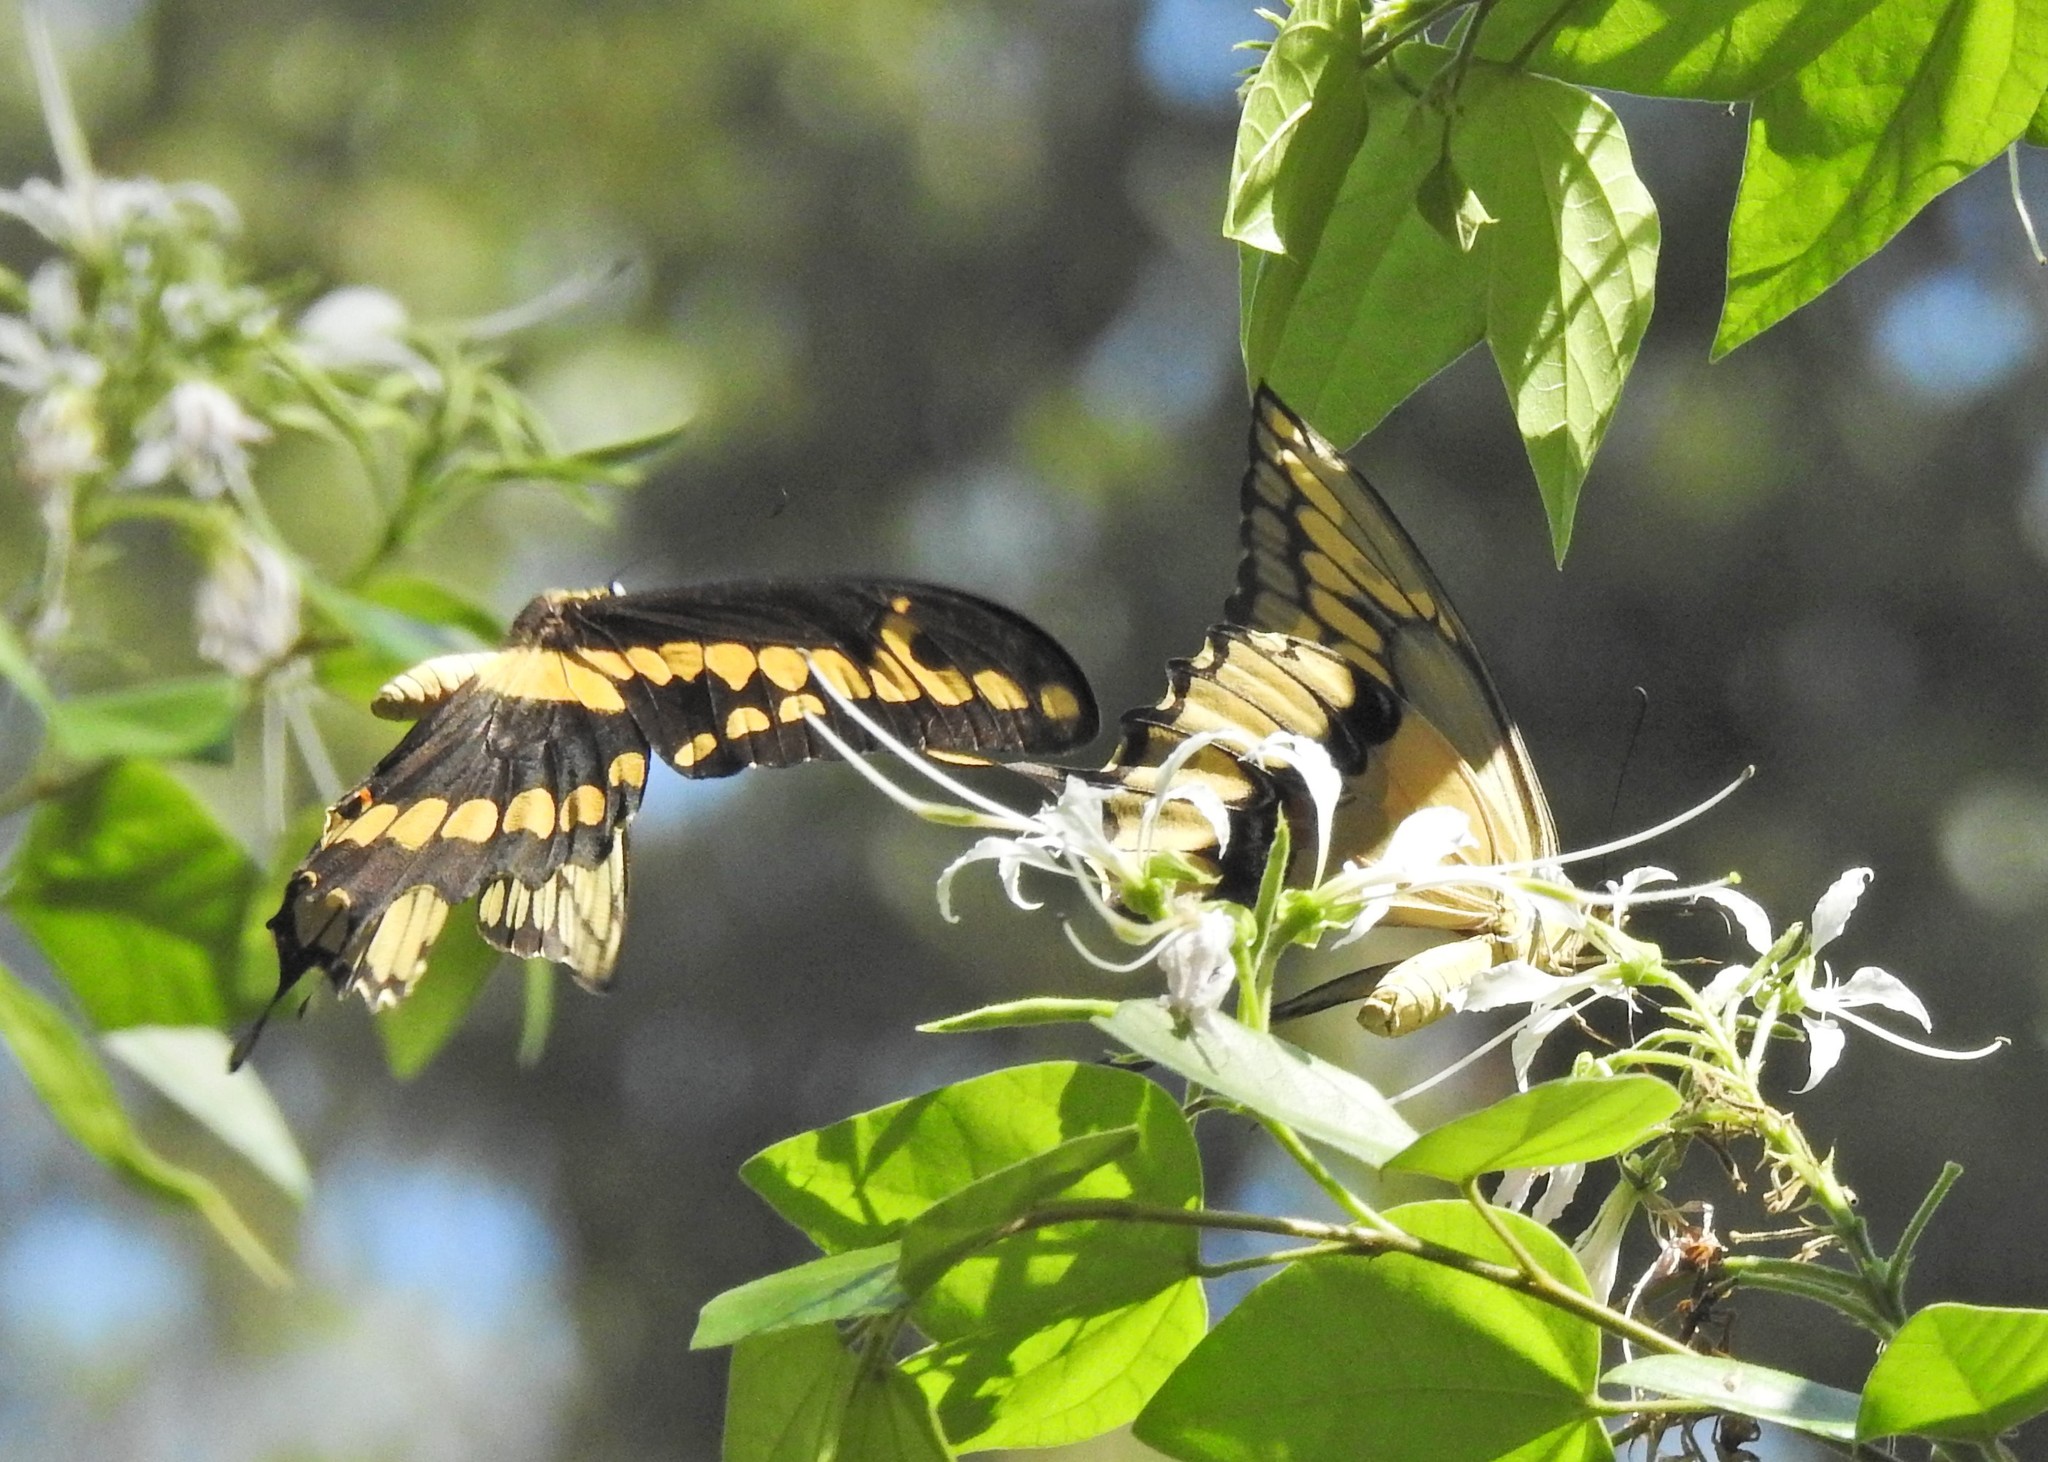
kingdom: Animalia
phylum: Arthropoda
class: Insecta
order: Lepidoptera
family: Papilionidae
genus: Papilio
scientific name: Papilio rumiko
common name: Western giant swallowtail
